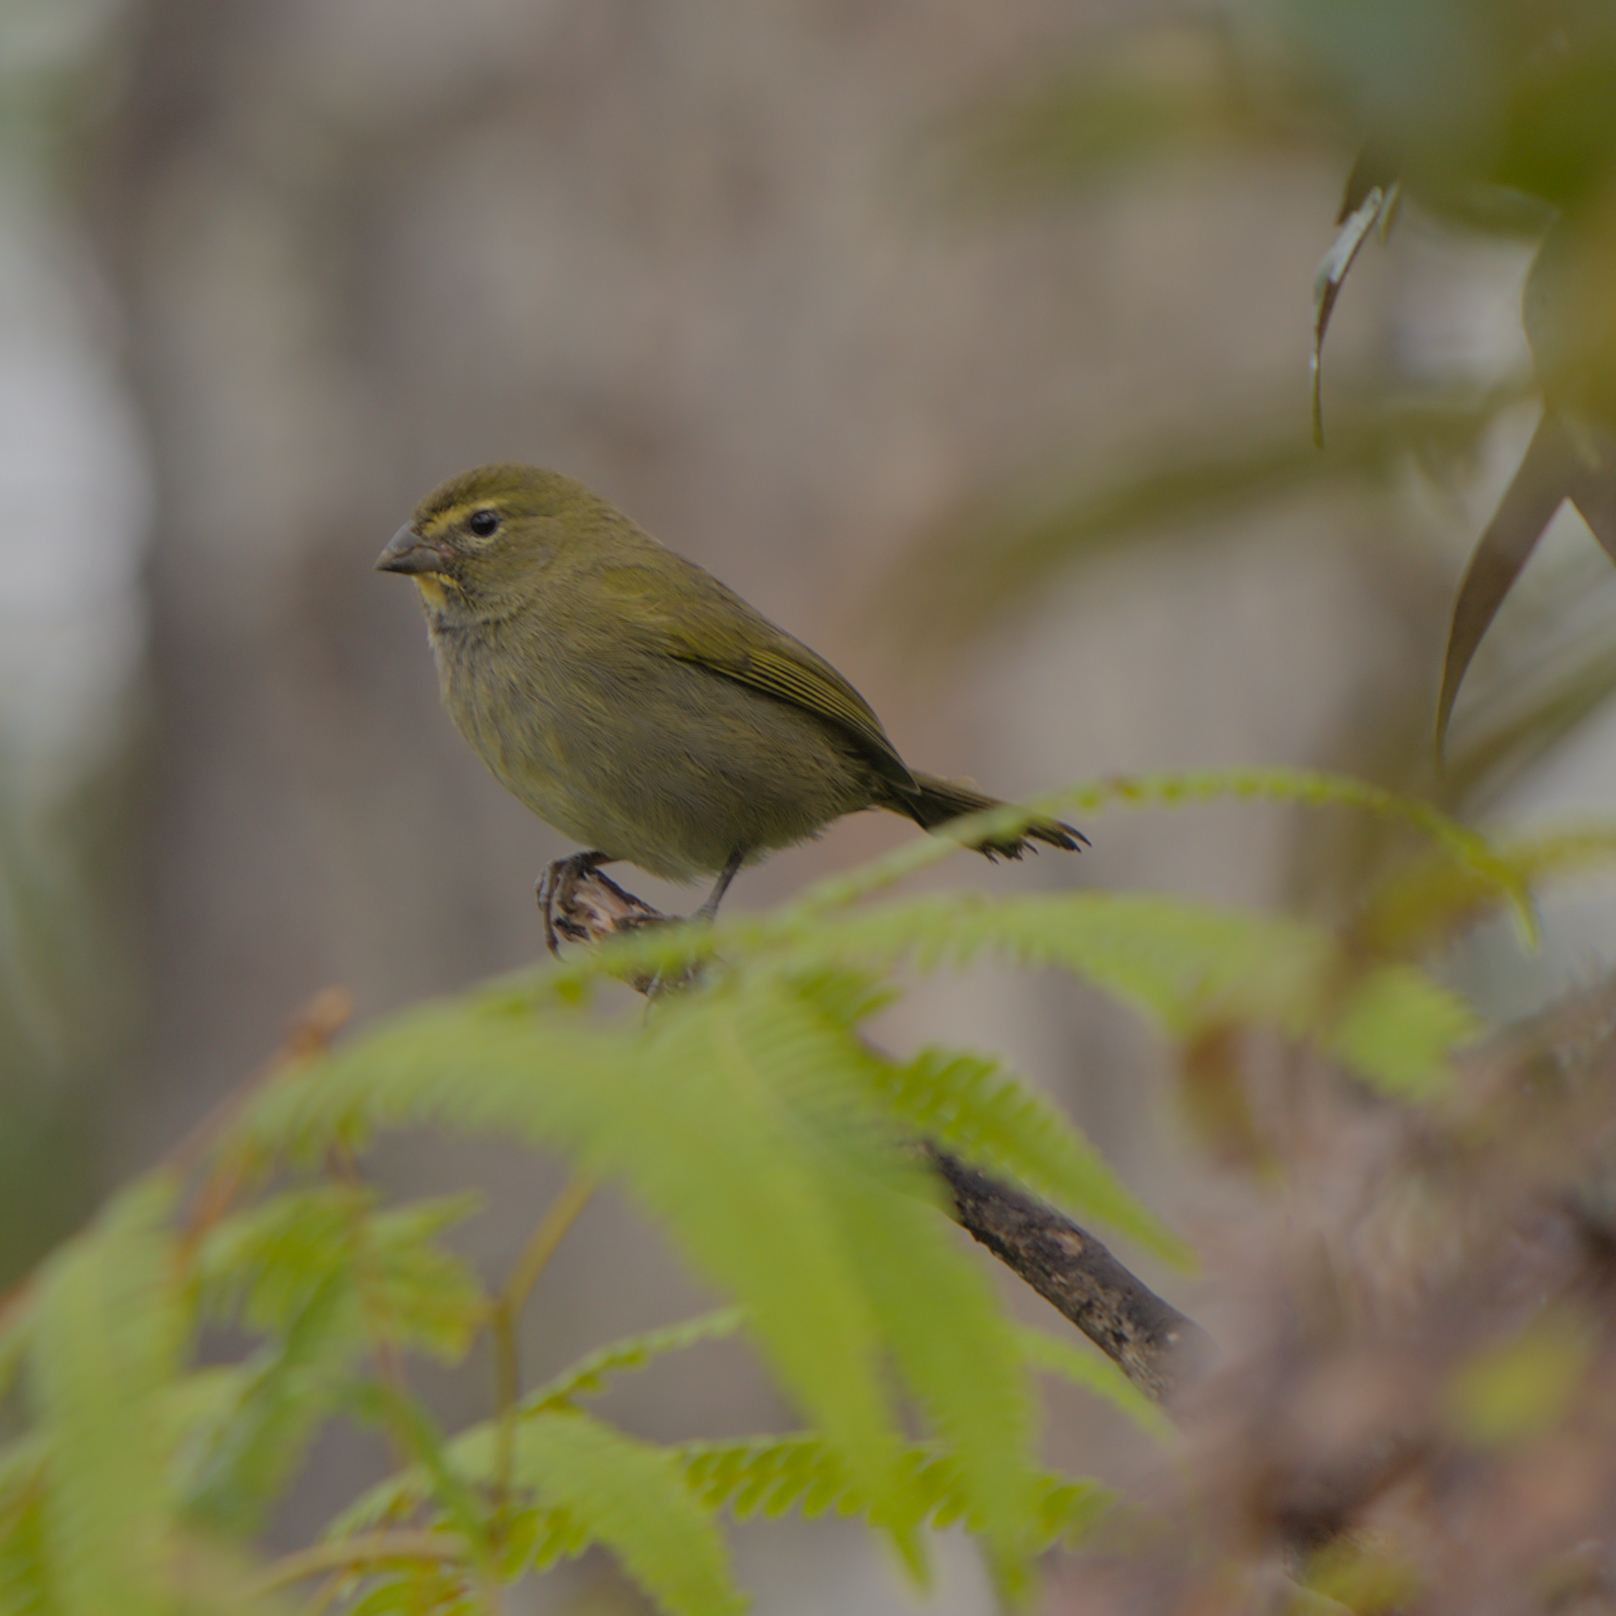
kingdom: Animalia
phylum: Chordata
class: Aves
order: Passeriformes
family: Thraupidae
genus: Tiaris
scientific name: Tiaris olivaceus
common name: Yellow-faced grassquit
